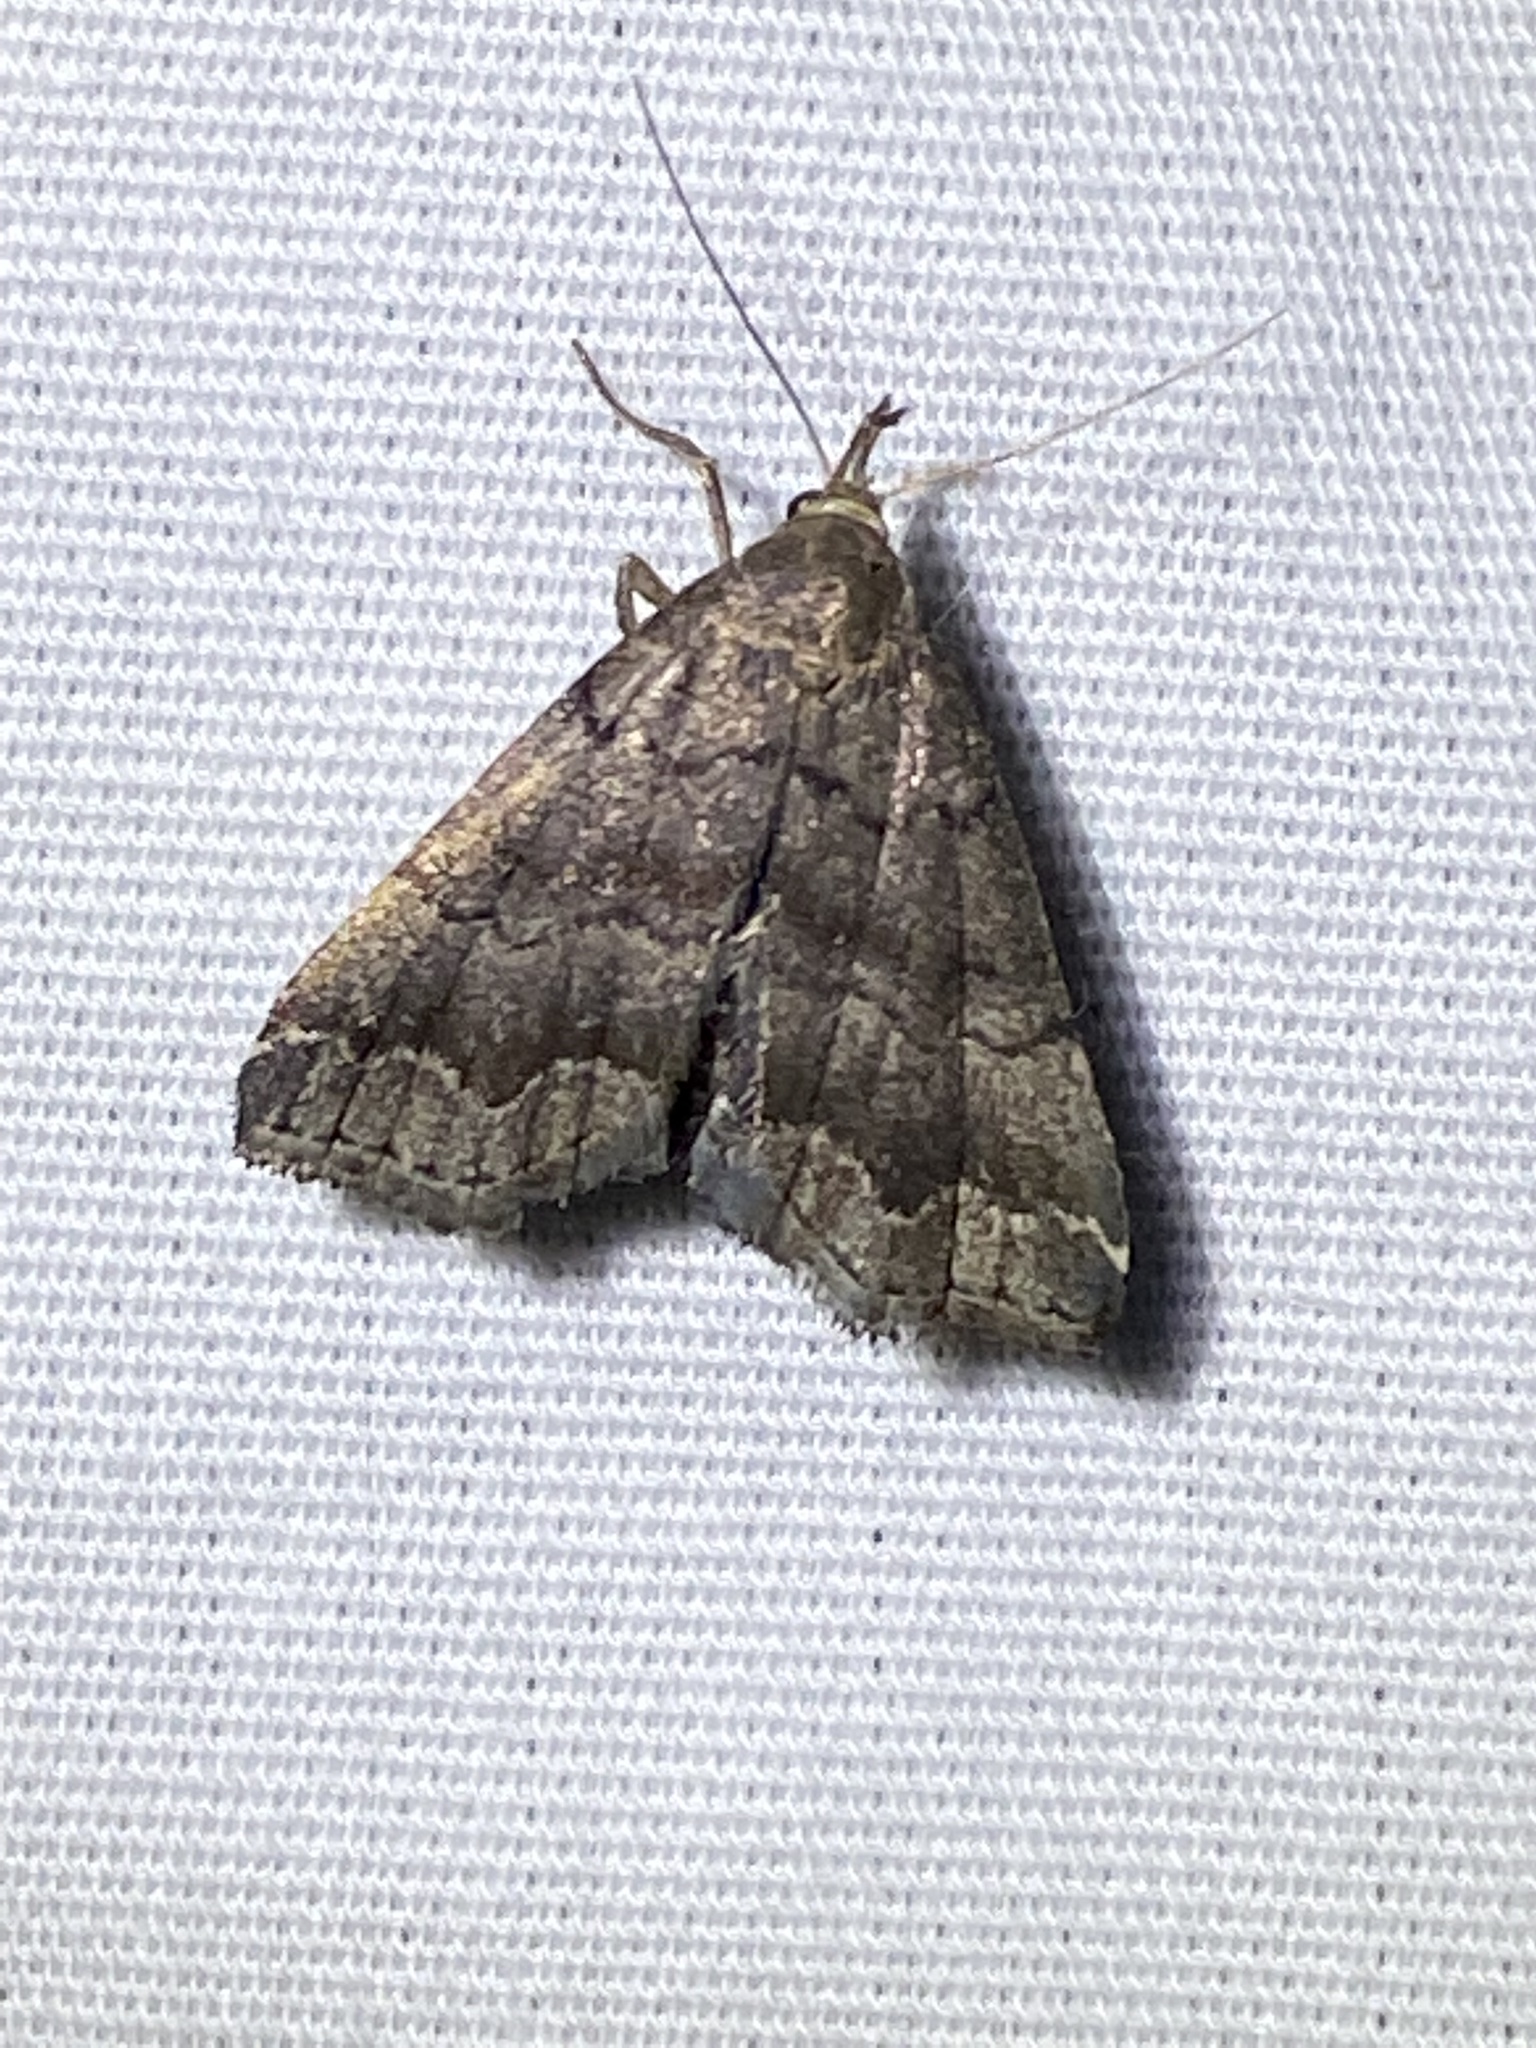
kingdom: Animalia
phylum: Arthropoda
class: Insecta
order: Lepidoptera
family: Erebidae
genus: Phalaenostola
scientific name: Phalaenostola larentioides
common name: Black-banded owlet
